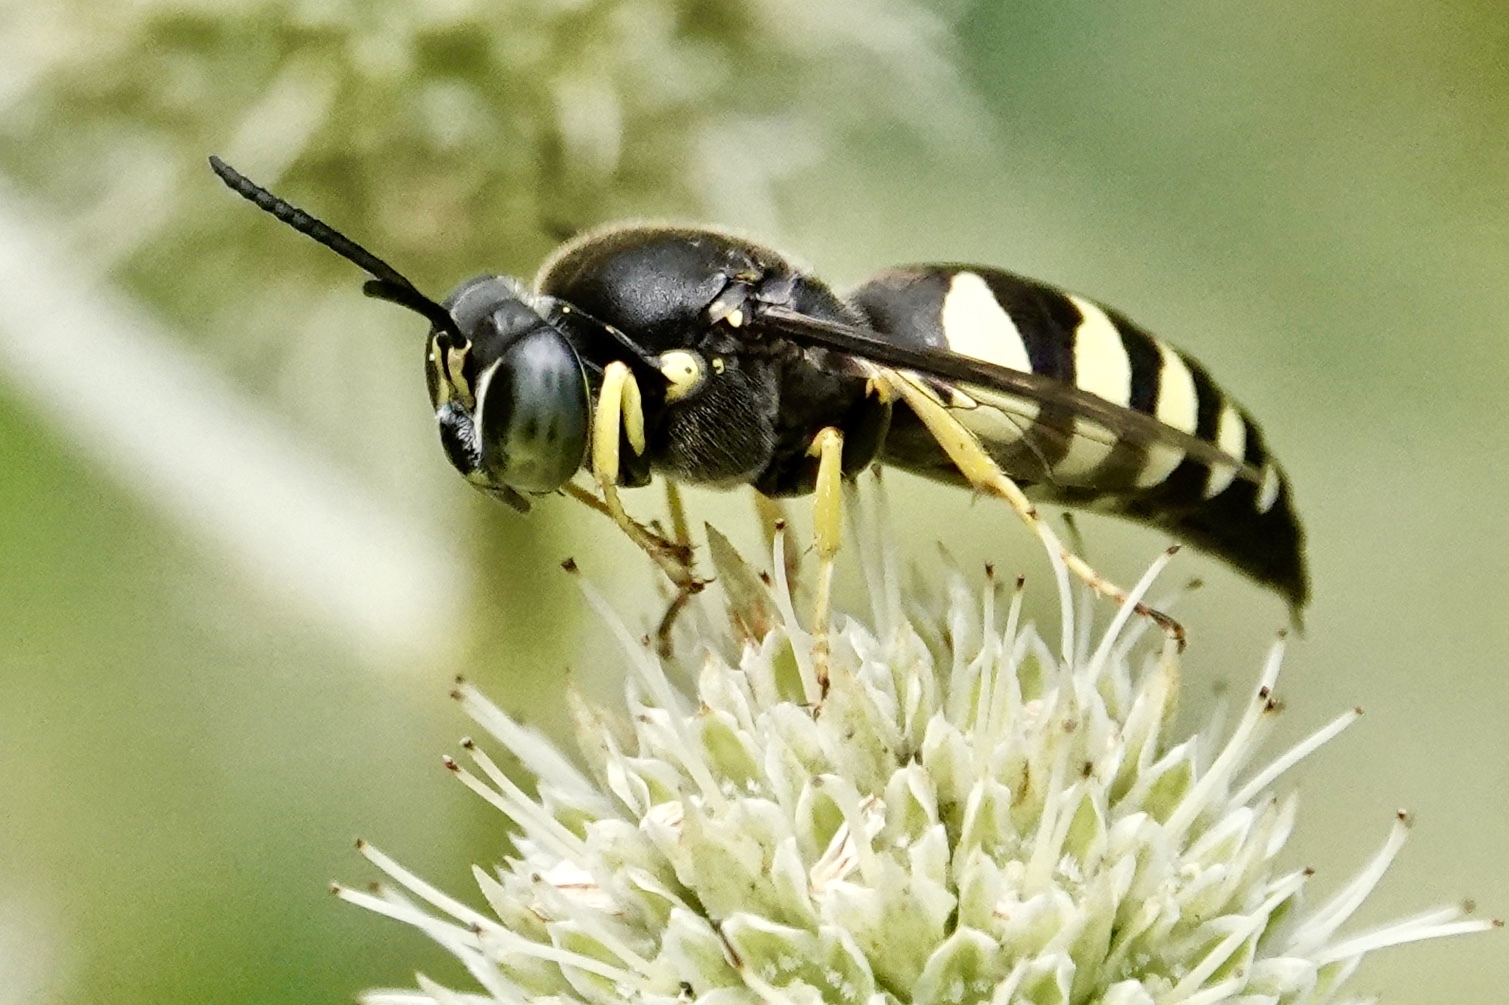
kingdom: Animalia
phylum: Arthropoda
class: Insecta
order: Hymenoptera
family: Crabronidae
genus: Bicyrtes
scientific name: Bicyrtes quadrifasciatus
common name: Four-banded stink bug hunter wasp
